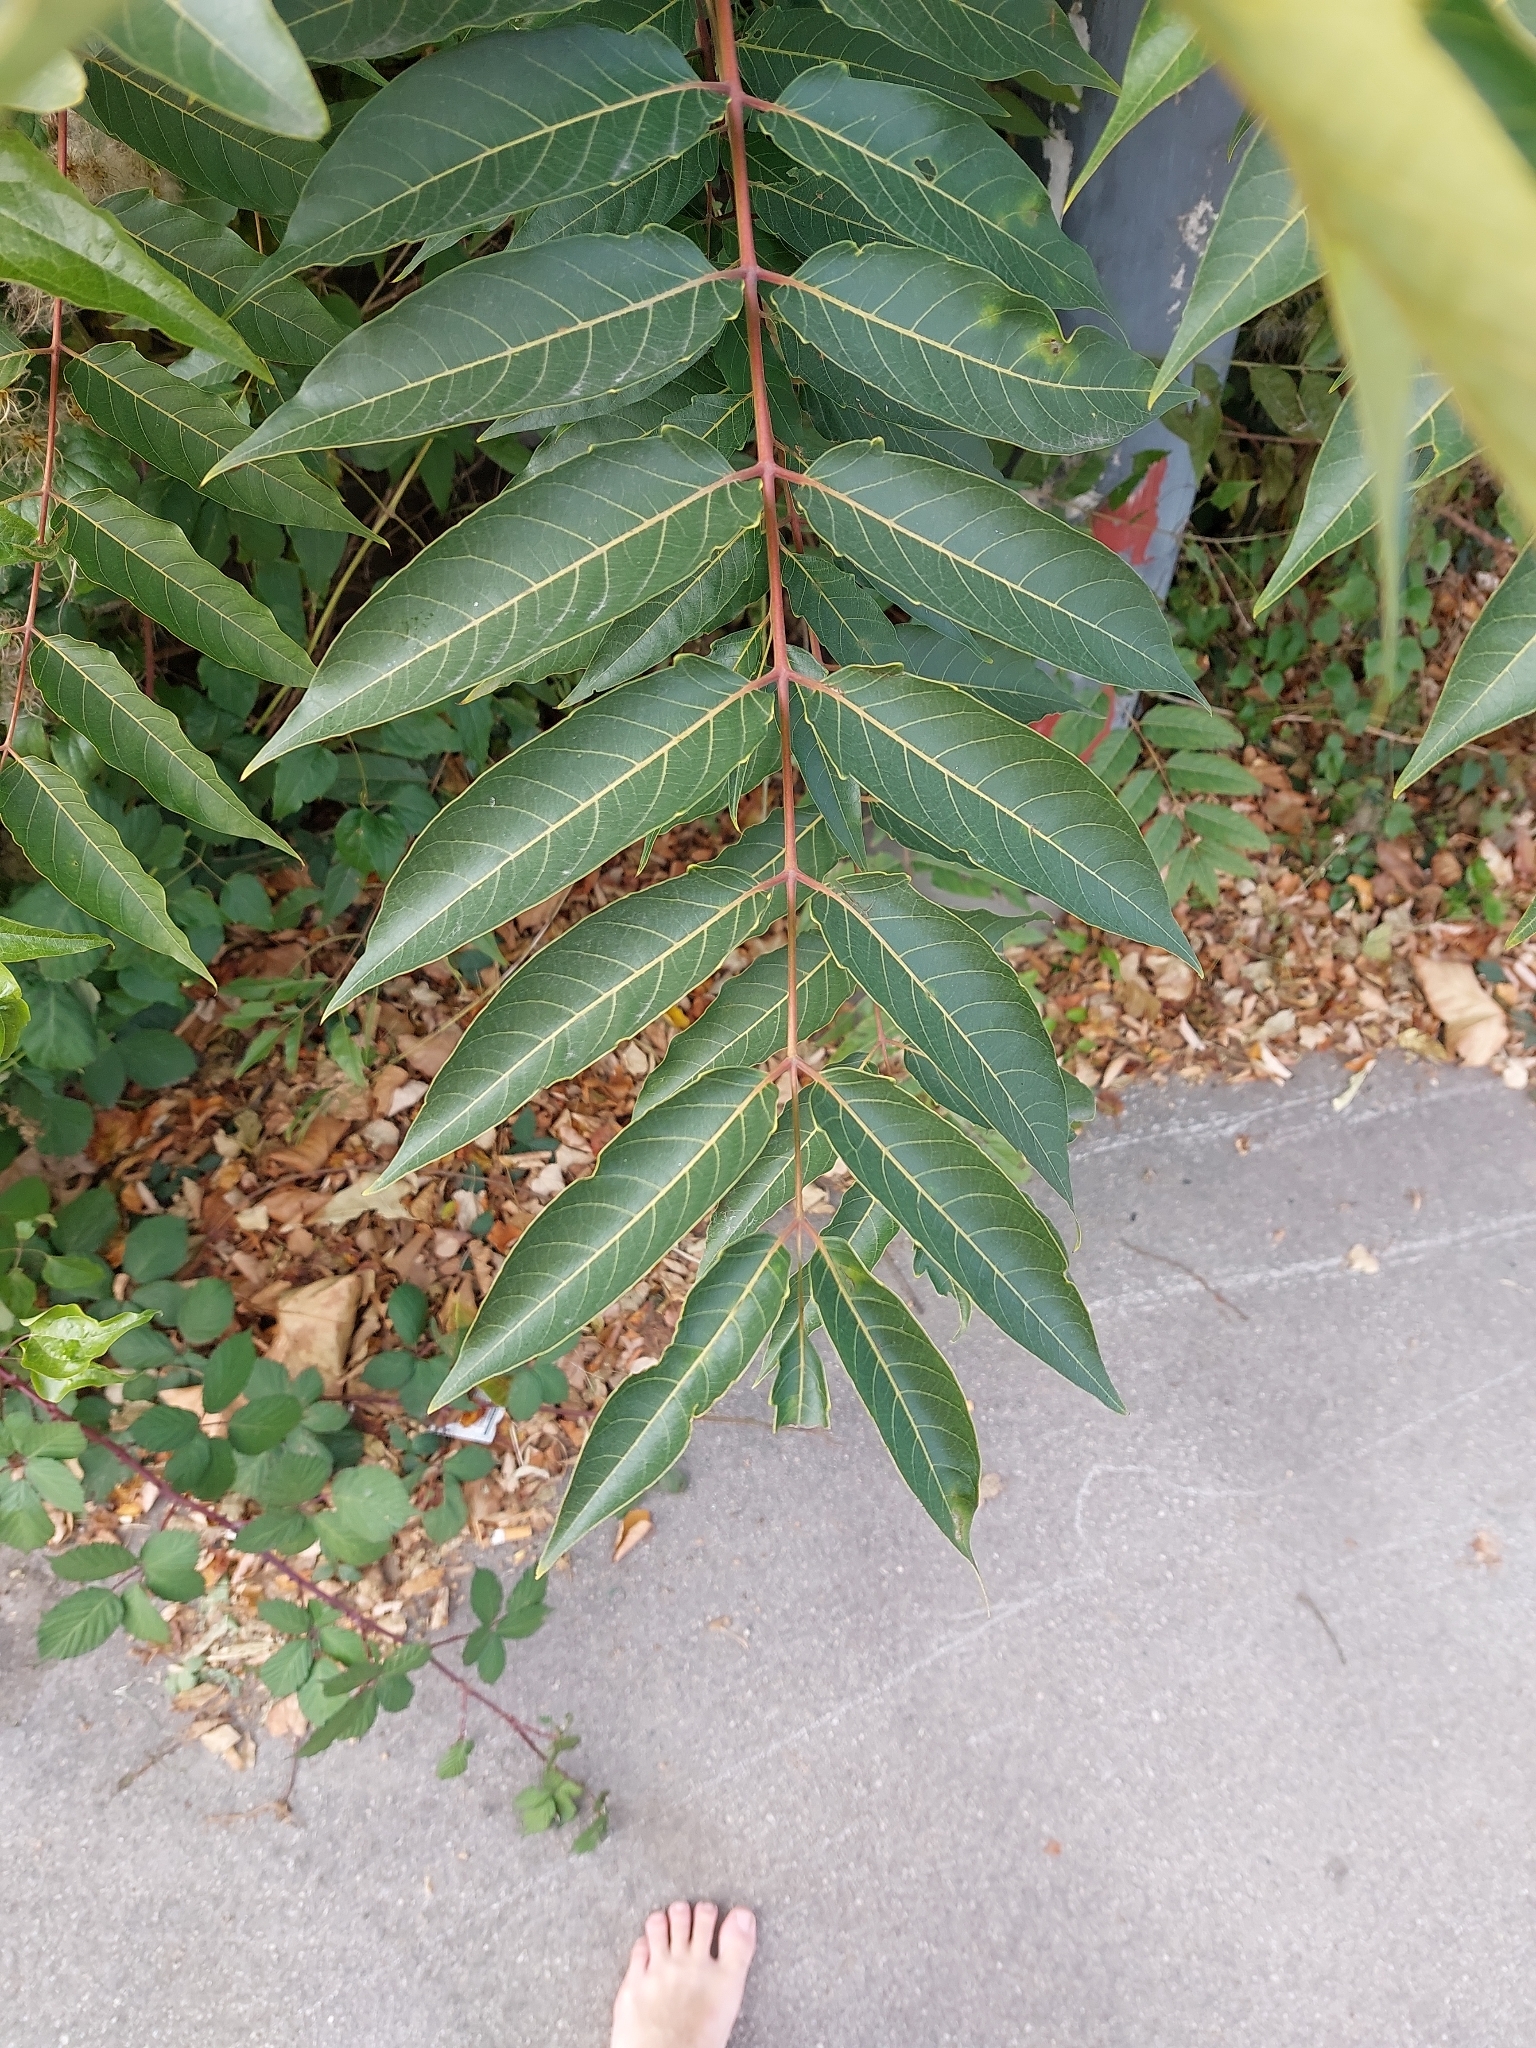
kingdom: Plantae
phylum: Tracheophyta
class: Magnoliopsida
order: Sapindales
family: Simaroubaceae
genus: Ailanthus
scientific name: Ailanthus altissima
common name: Tree-of-heaven
